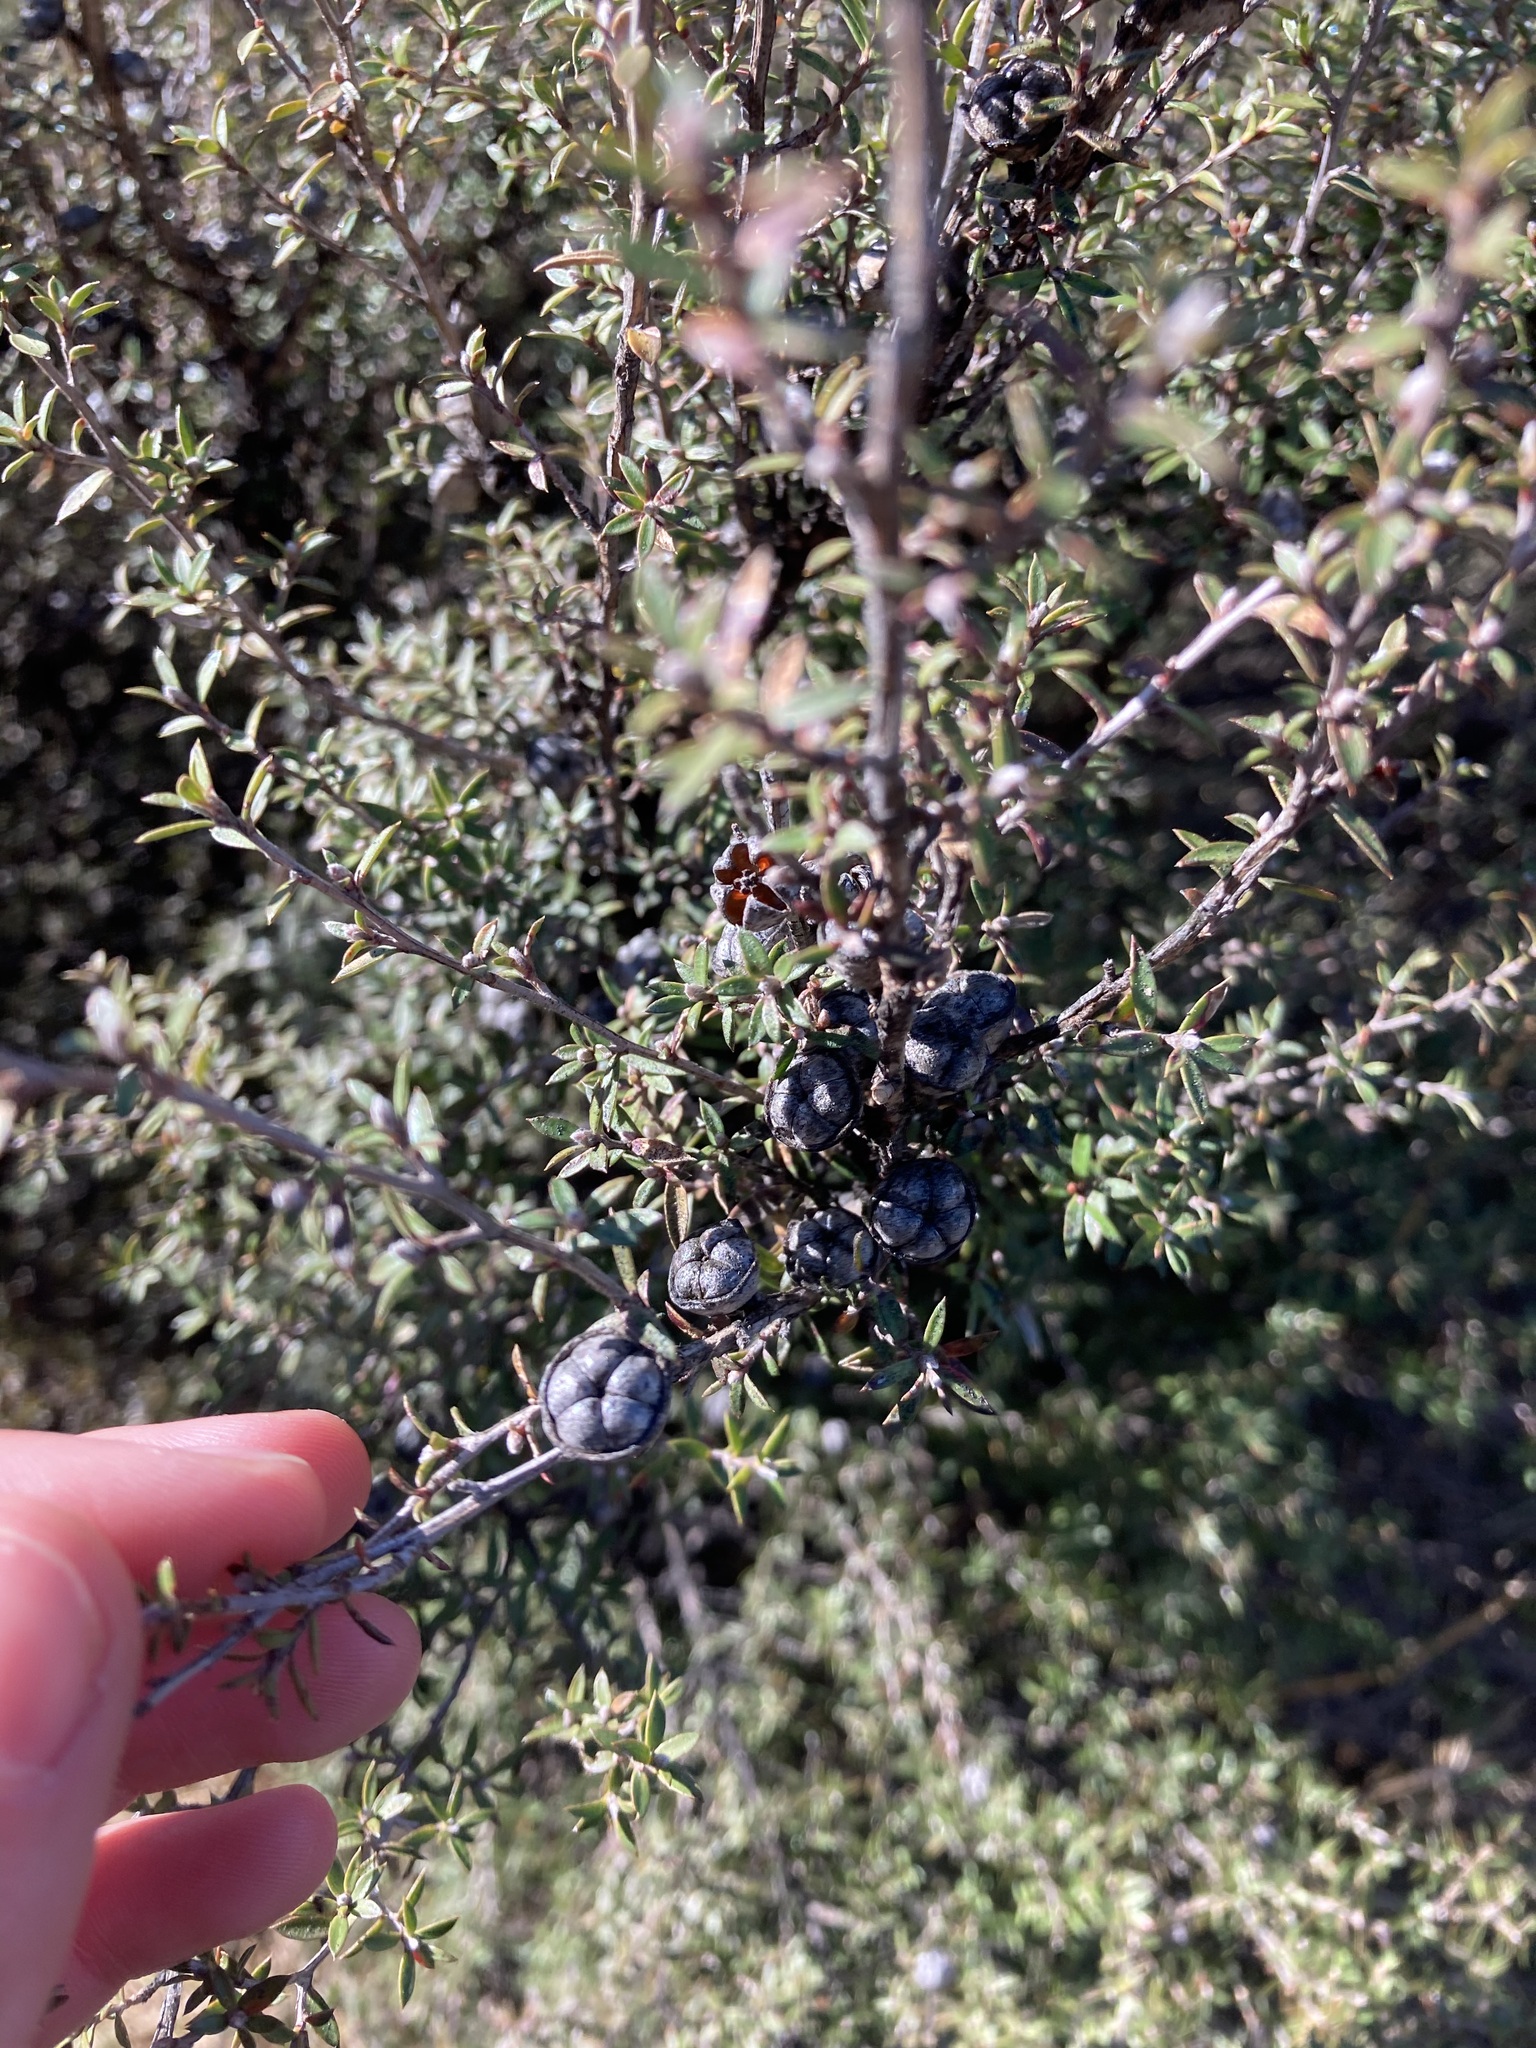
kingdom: Plantae
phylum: Tracheophyta
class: Magnoliopsida
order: Myrtales
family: Myrtaceae
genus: Leptospermum
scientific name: Leptospermum scoparium
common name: Broom tea-tree
